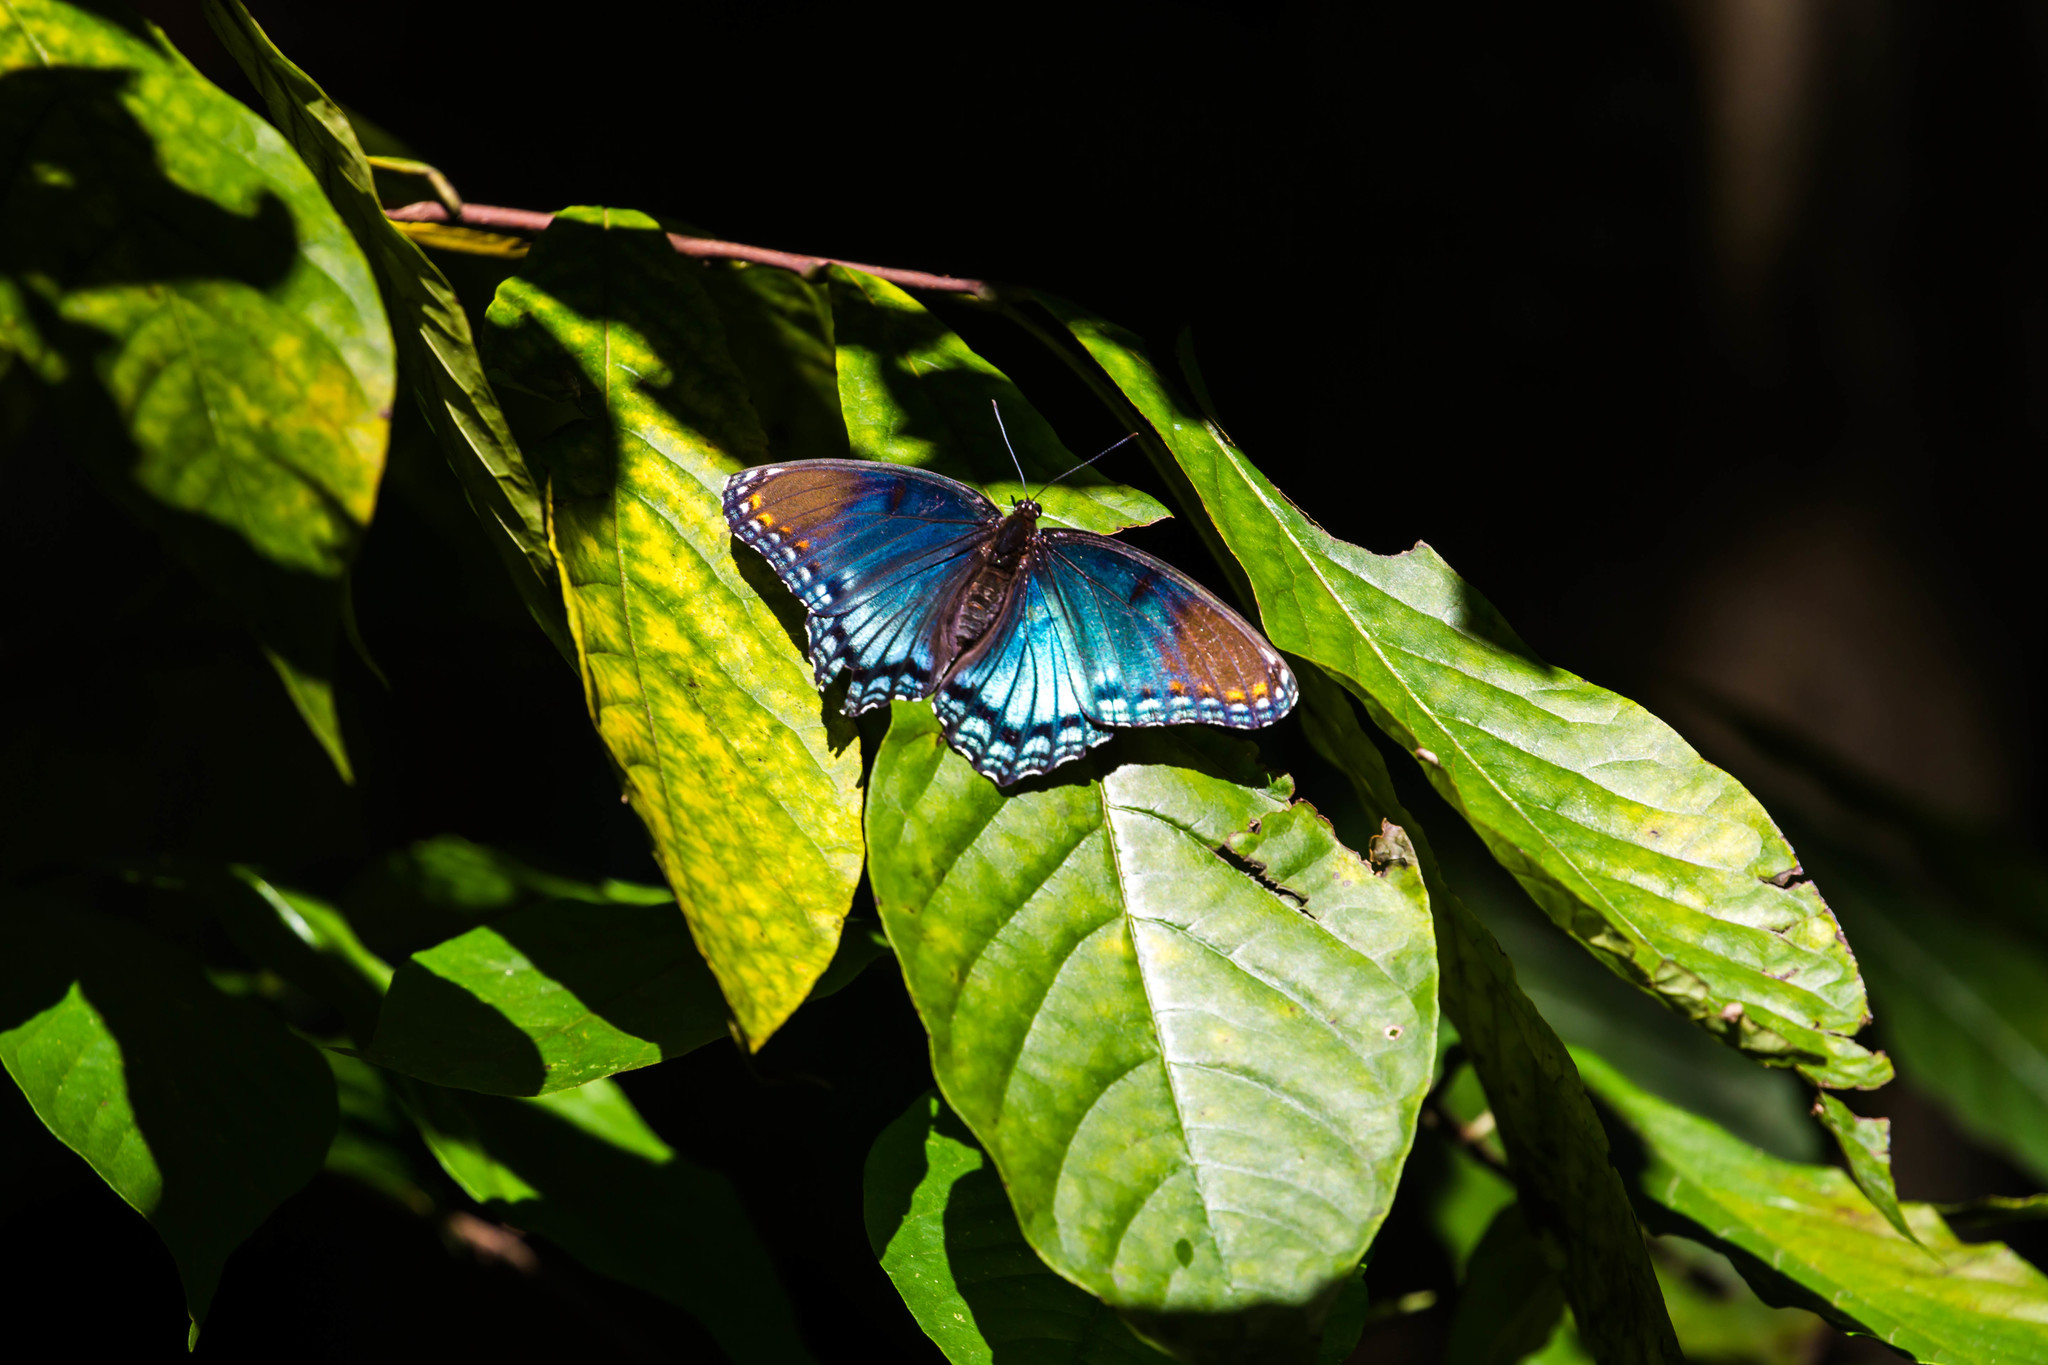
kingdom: Animalia
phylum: Arthropoda
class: Insecta
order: Lepidoptera
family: Nymphalidae
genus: Limenitis
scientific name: Limenitis astyanax
